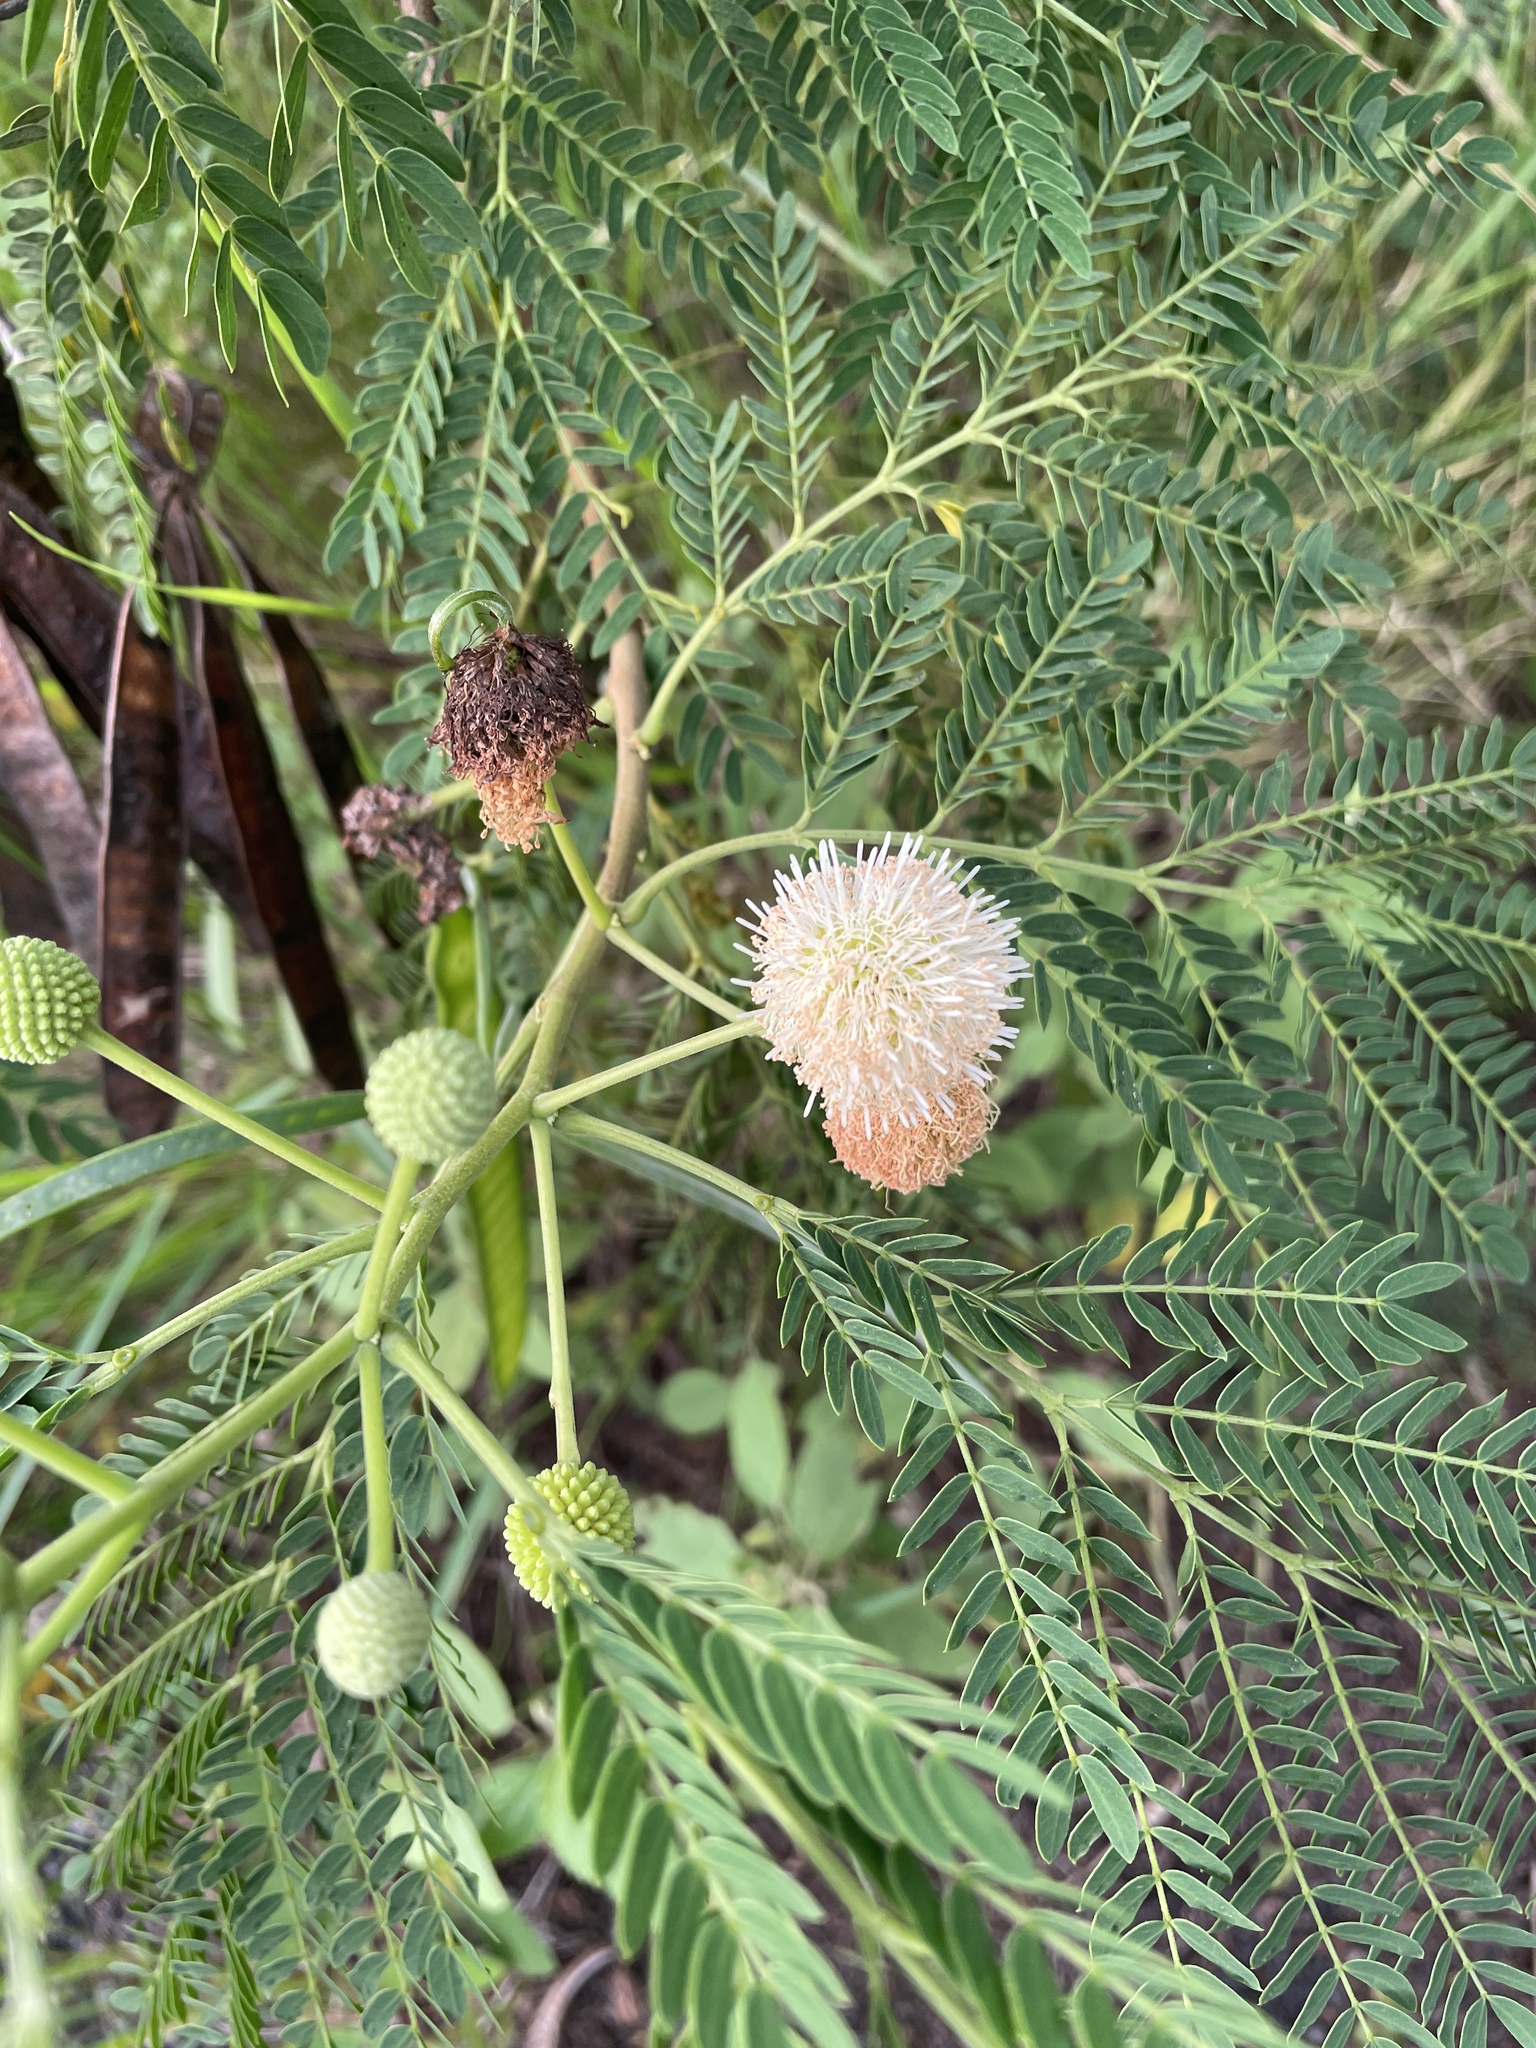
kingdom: Plantae
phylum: Tracheophyta
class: Magnoliopsida
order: Fabales
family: Fabaceae
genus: Leucaena
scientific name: Leucaena leucocephala
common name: White leadtree
